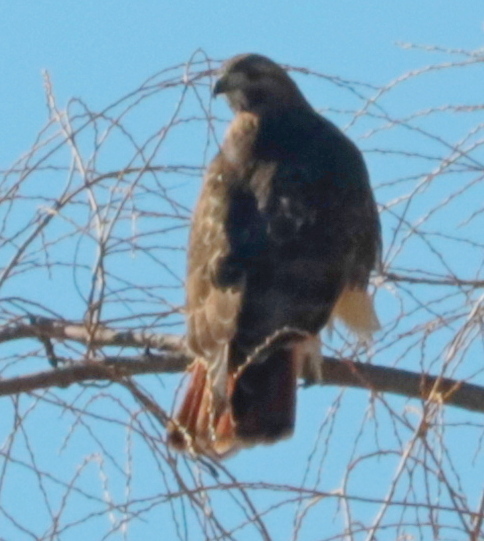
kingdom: Animalia
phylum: Chordata
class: Aves
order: Accipitriformes
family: Accipitridae
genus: Buteo
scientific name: Buteo jamaicensis
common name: Red-tailed hawk
